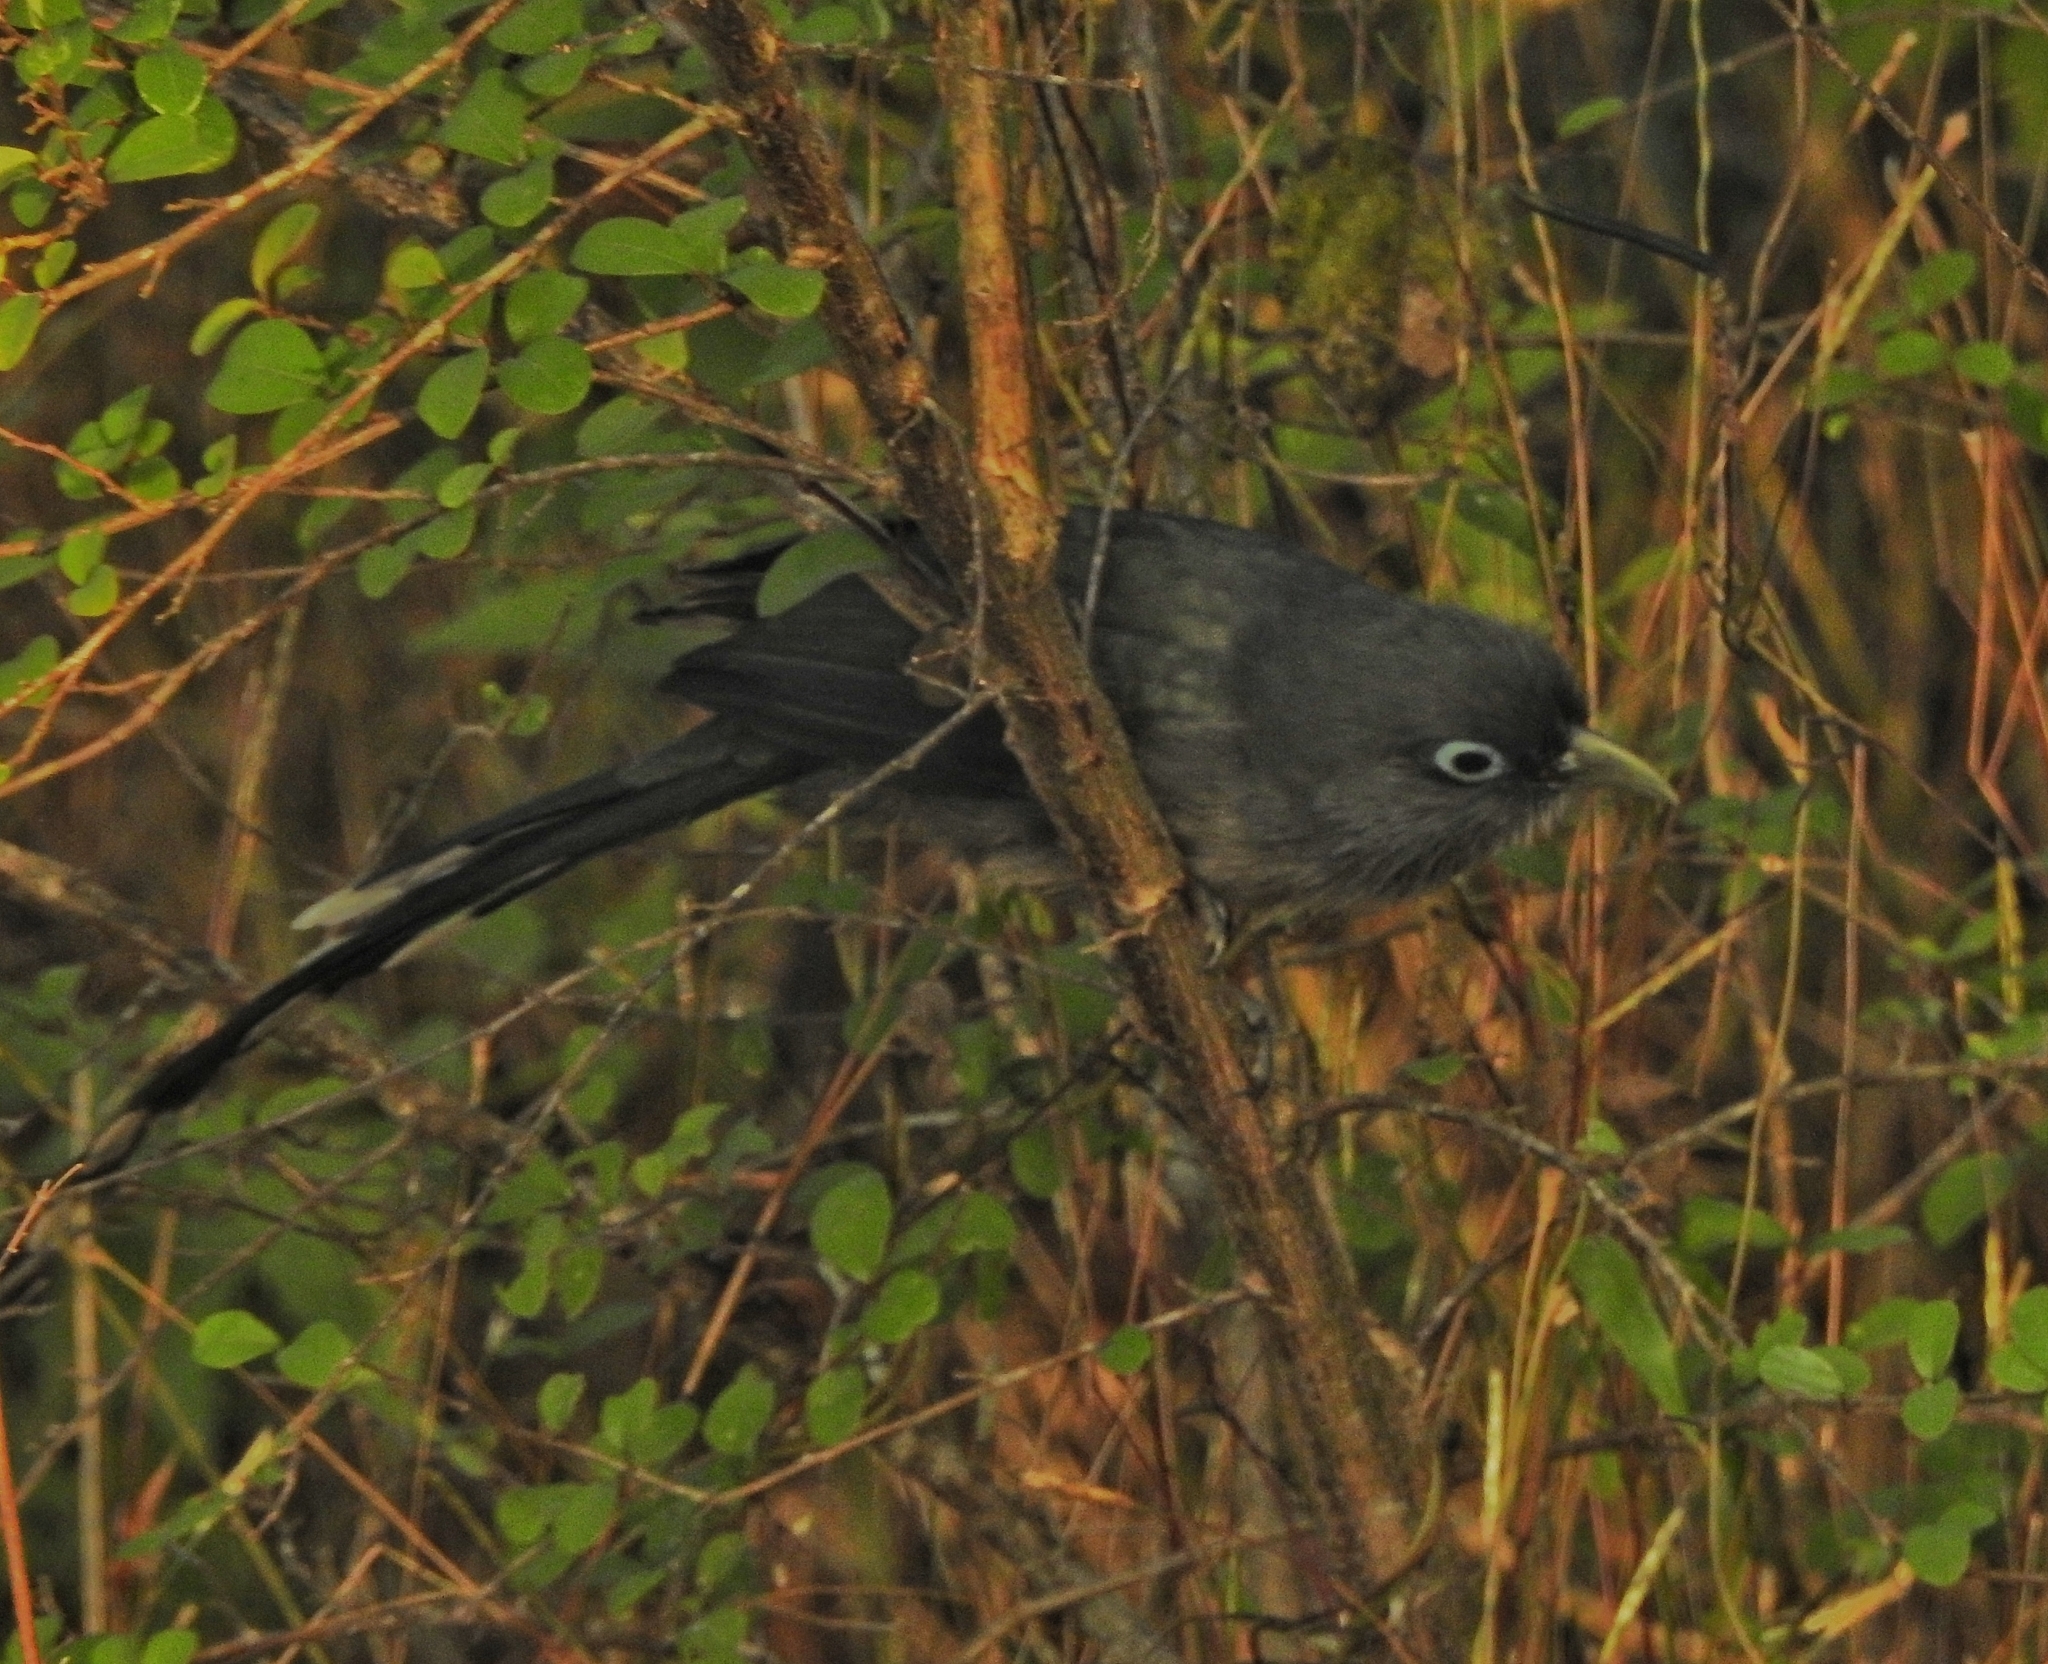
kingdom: Animalia
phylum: Chordata
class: Aves
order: Cuculiformes
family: Cuculidae
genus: Rhopodytes
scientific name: Rhopodytes viridirostris
